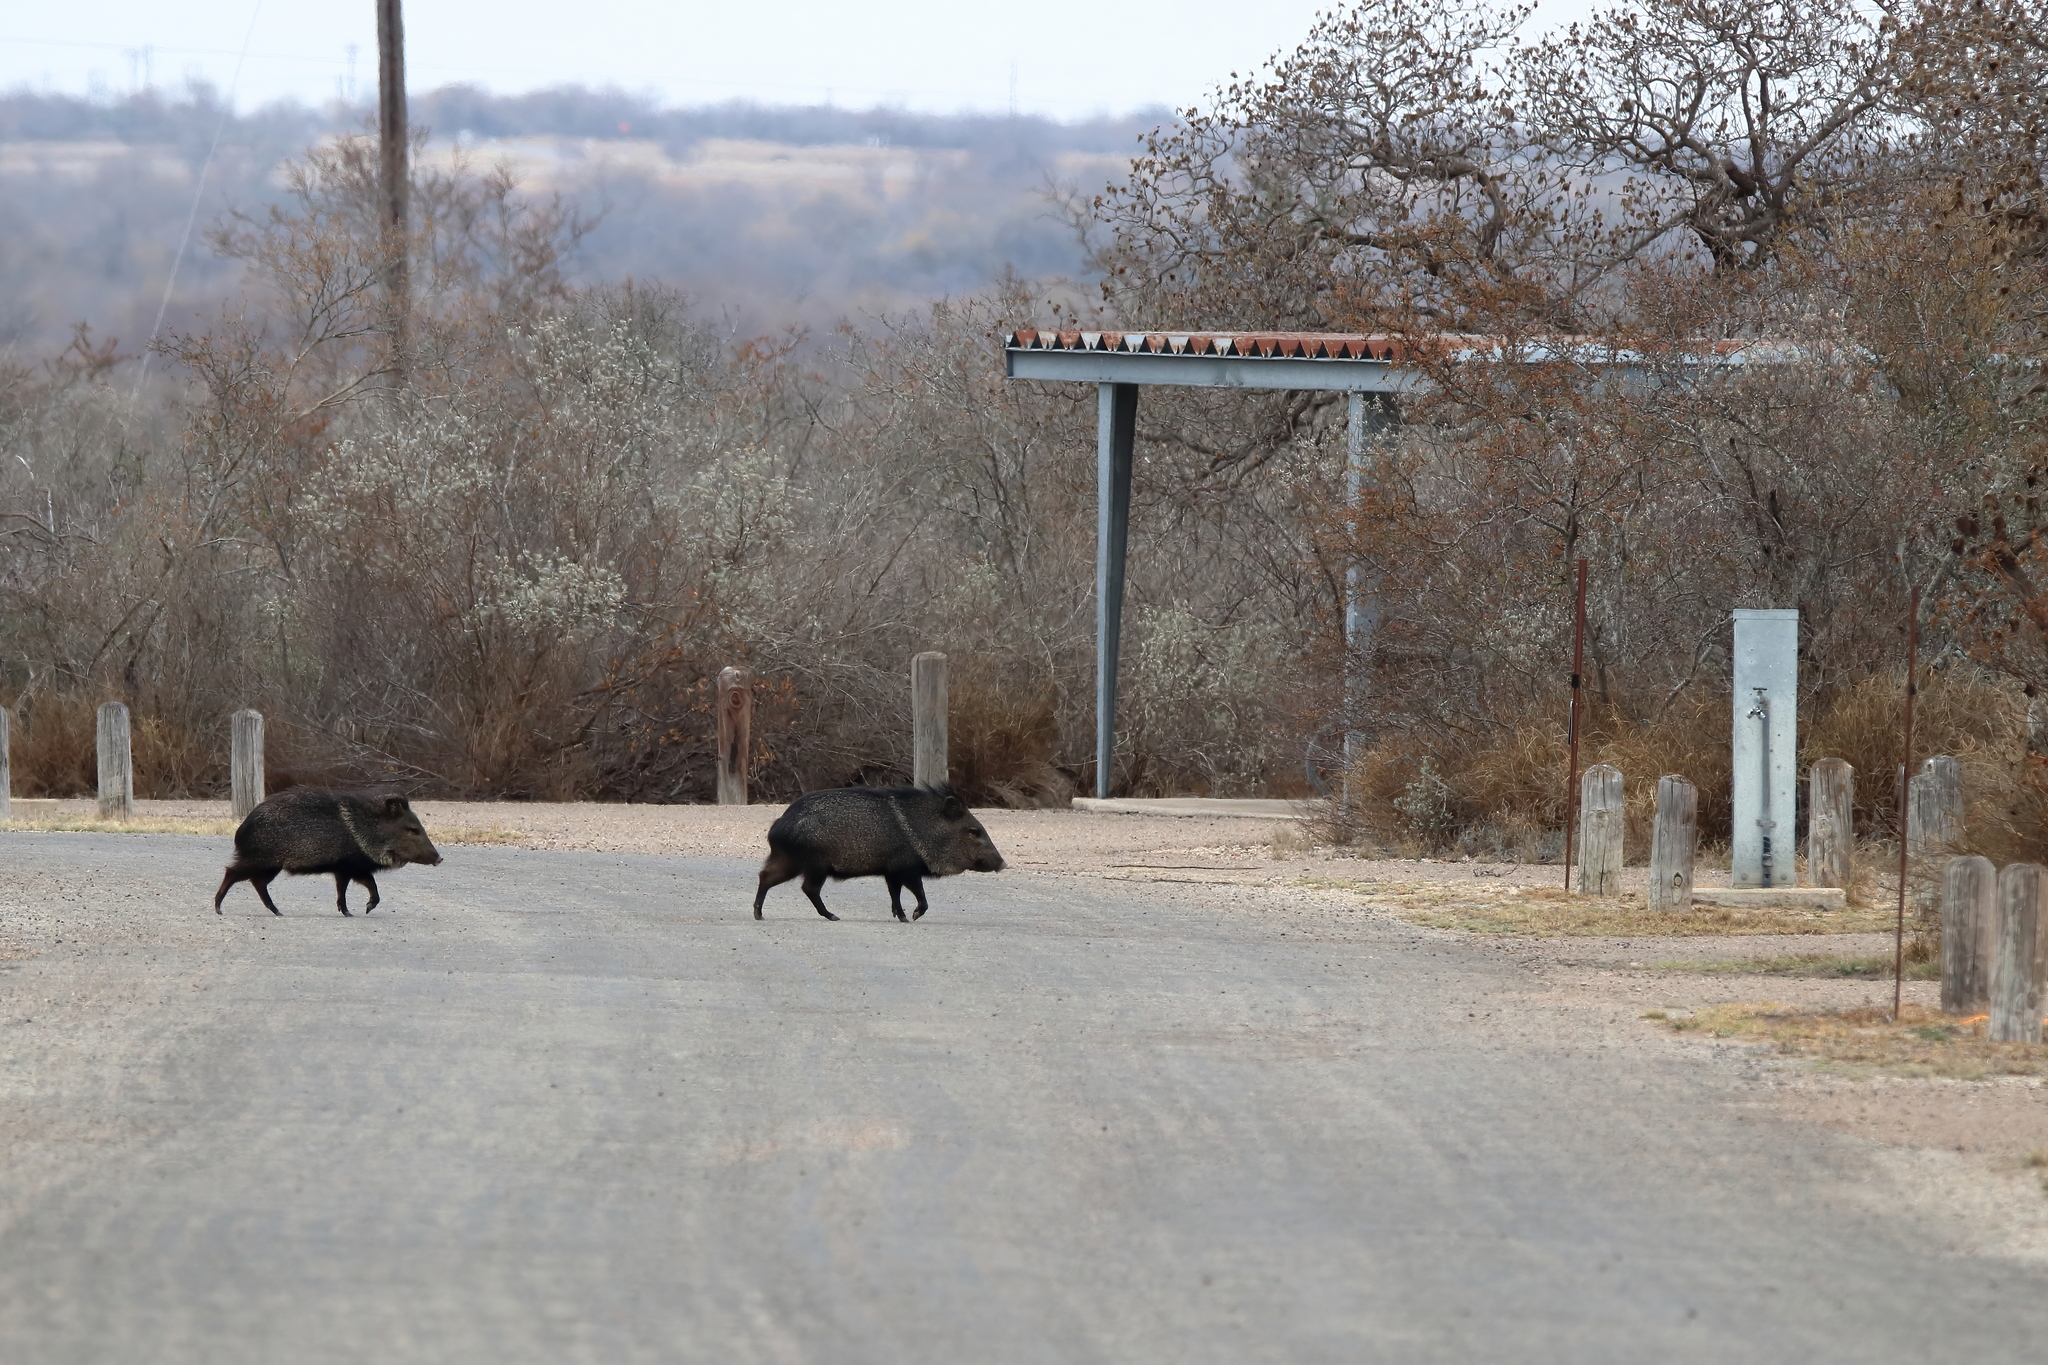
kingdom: Animalia
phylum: Chordata
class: Mammalia
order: Artiodactyla
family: Tayassuidae
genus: Pecari
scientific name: Pecari tajacu
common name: Collared peccary
